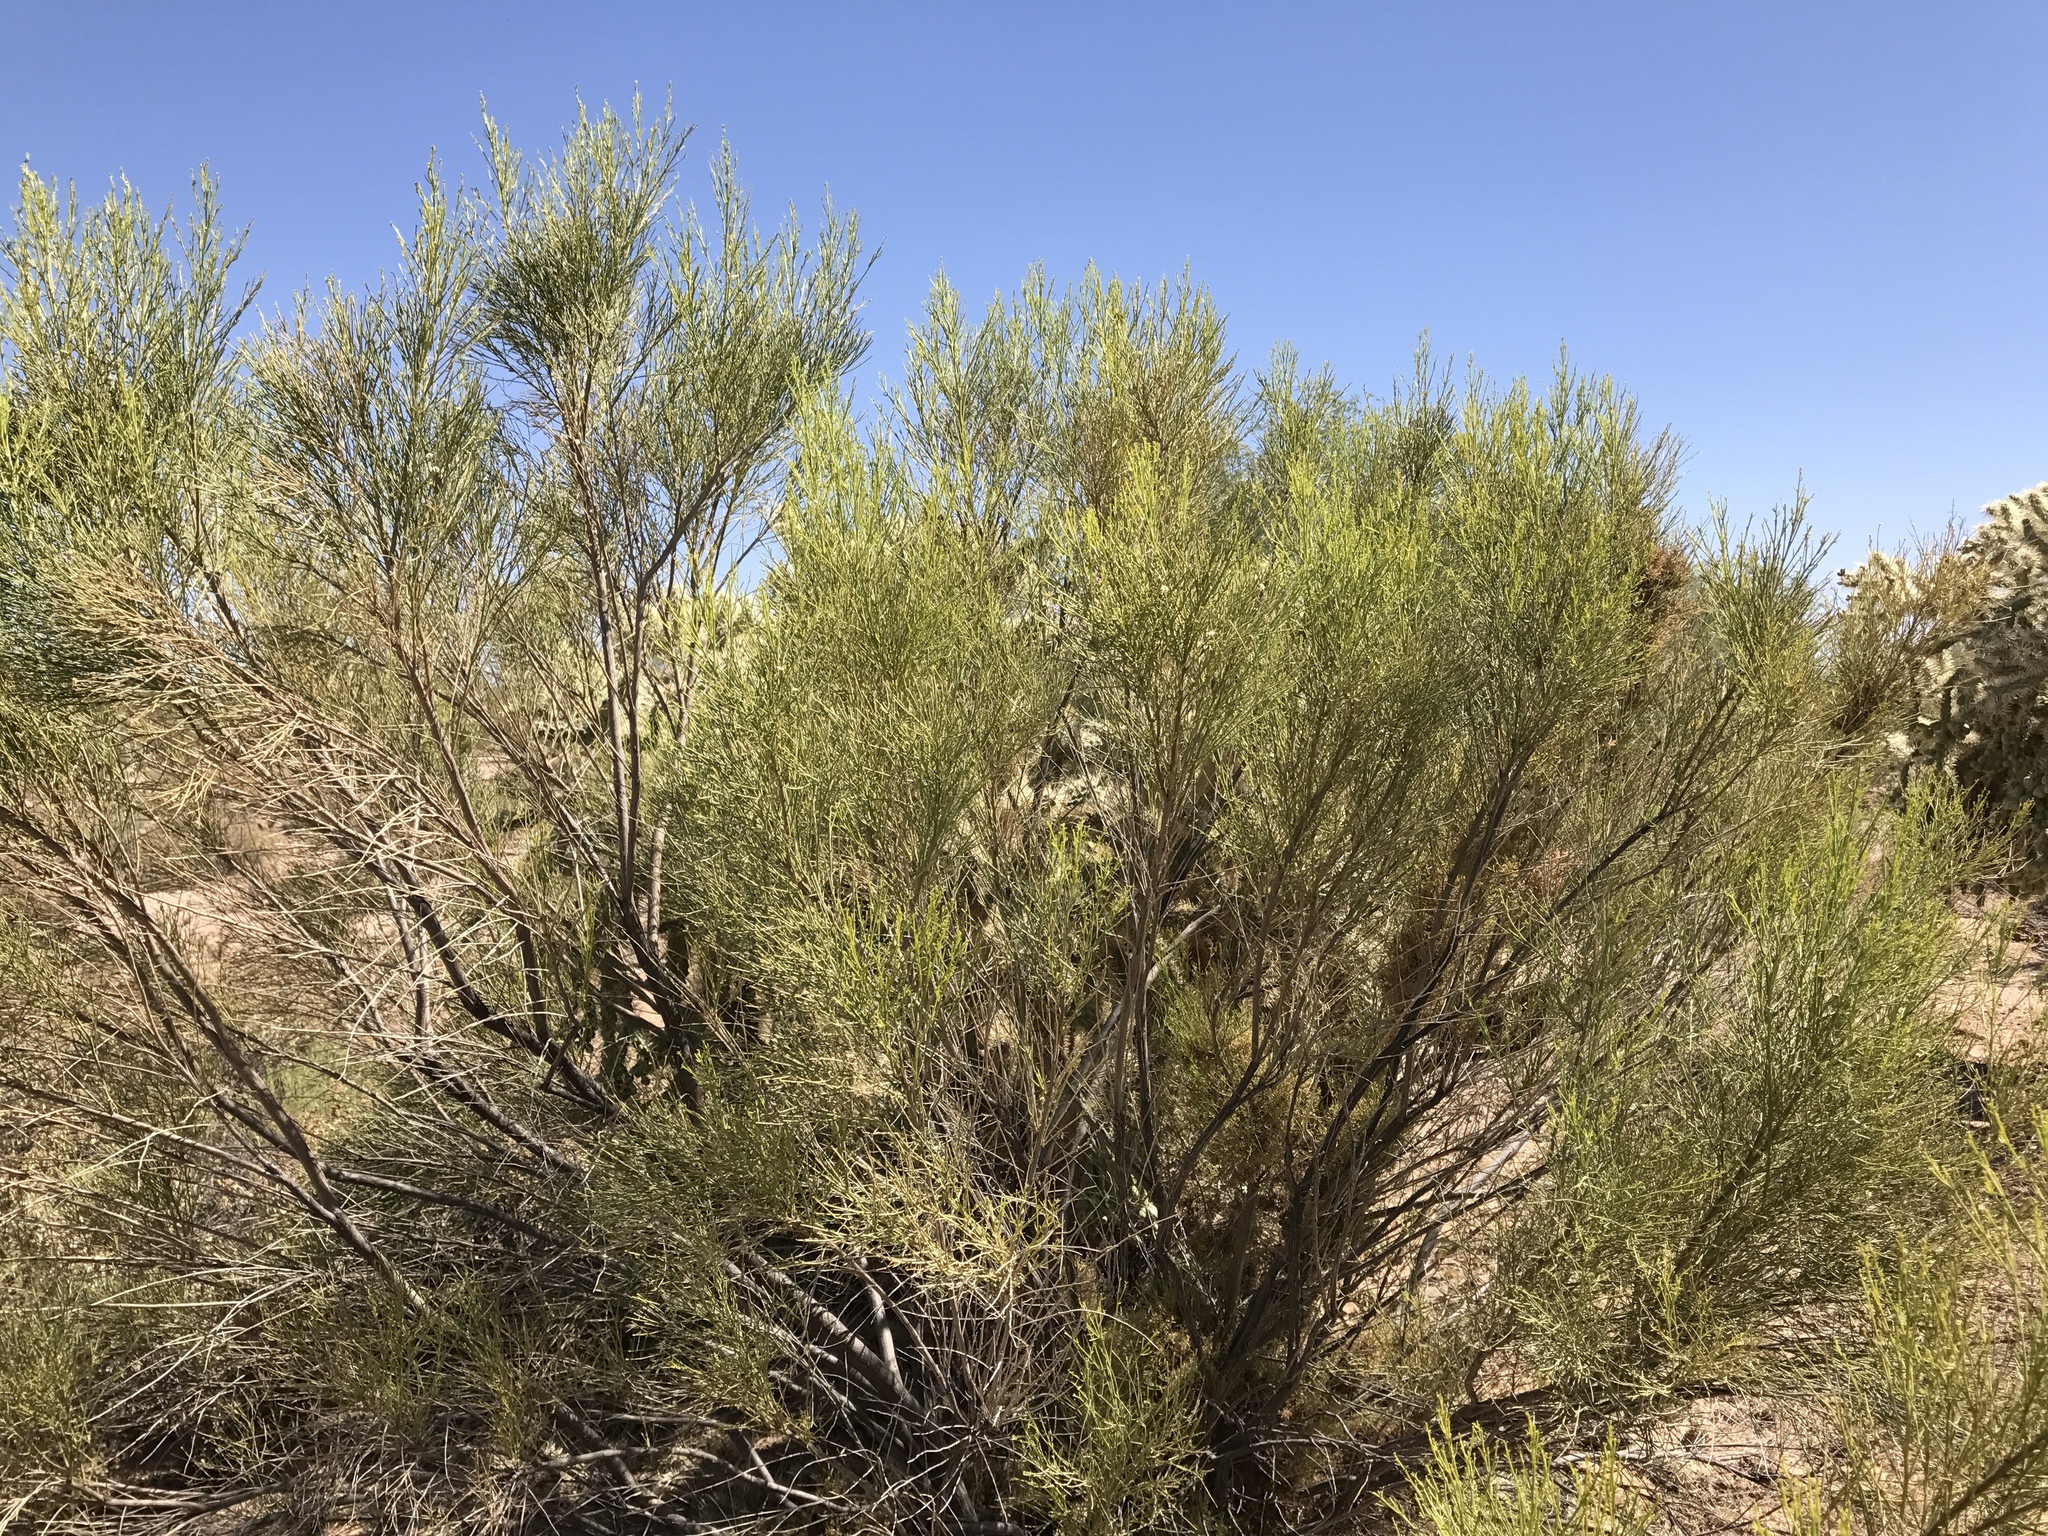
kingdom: Plantae
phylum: Tracheophyta
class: Magnoliopsida
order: Asterales
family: Asteraceae
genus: Baccharis
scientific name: Baccharis sarothroides
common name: Desert-broom
